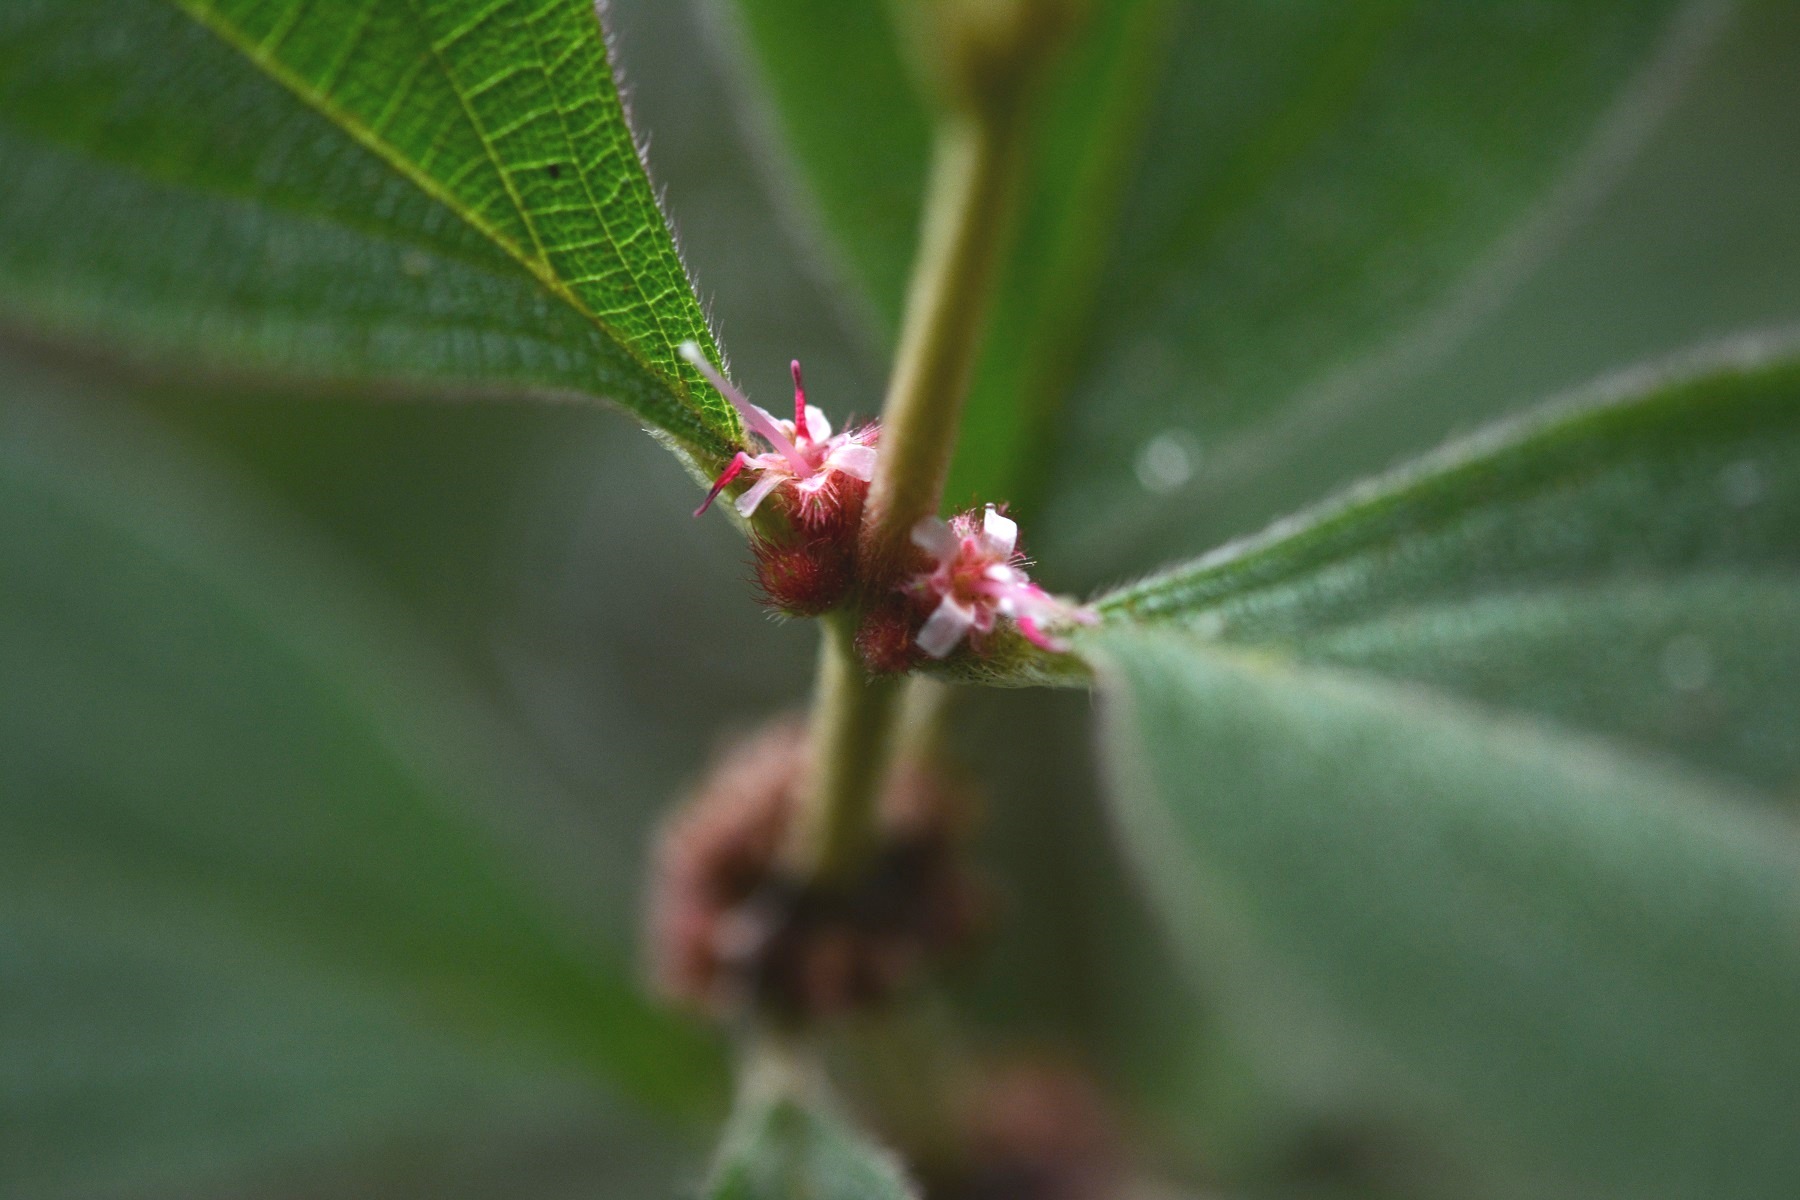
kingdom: Plantae
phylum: Tracheophyta
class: Magnoliopsida
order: Myrtales
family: Melastomataceae
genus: Miconia
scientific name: Miconia sericea
